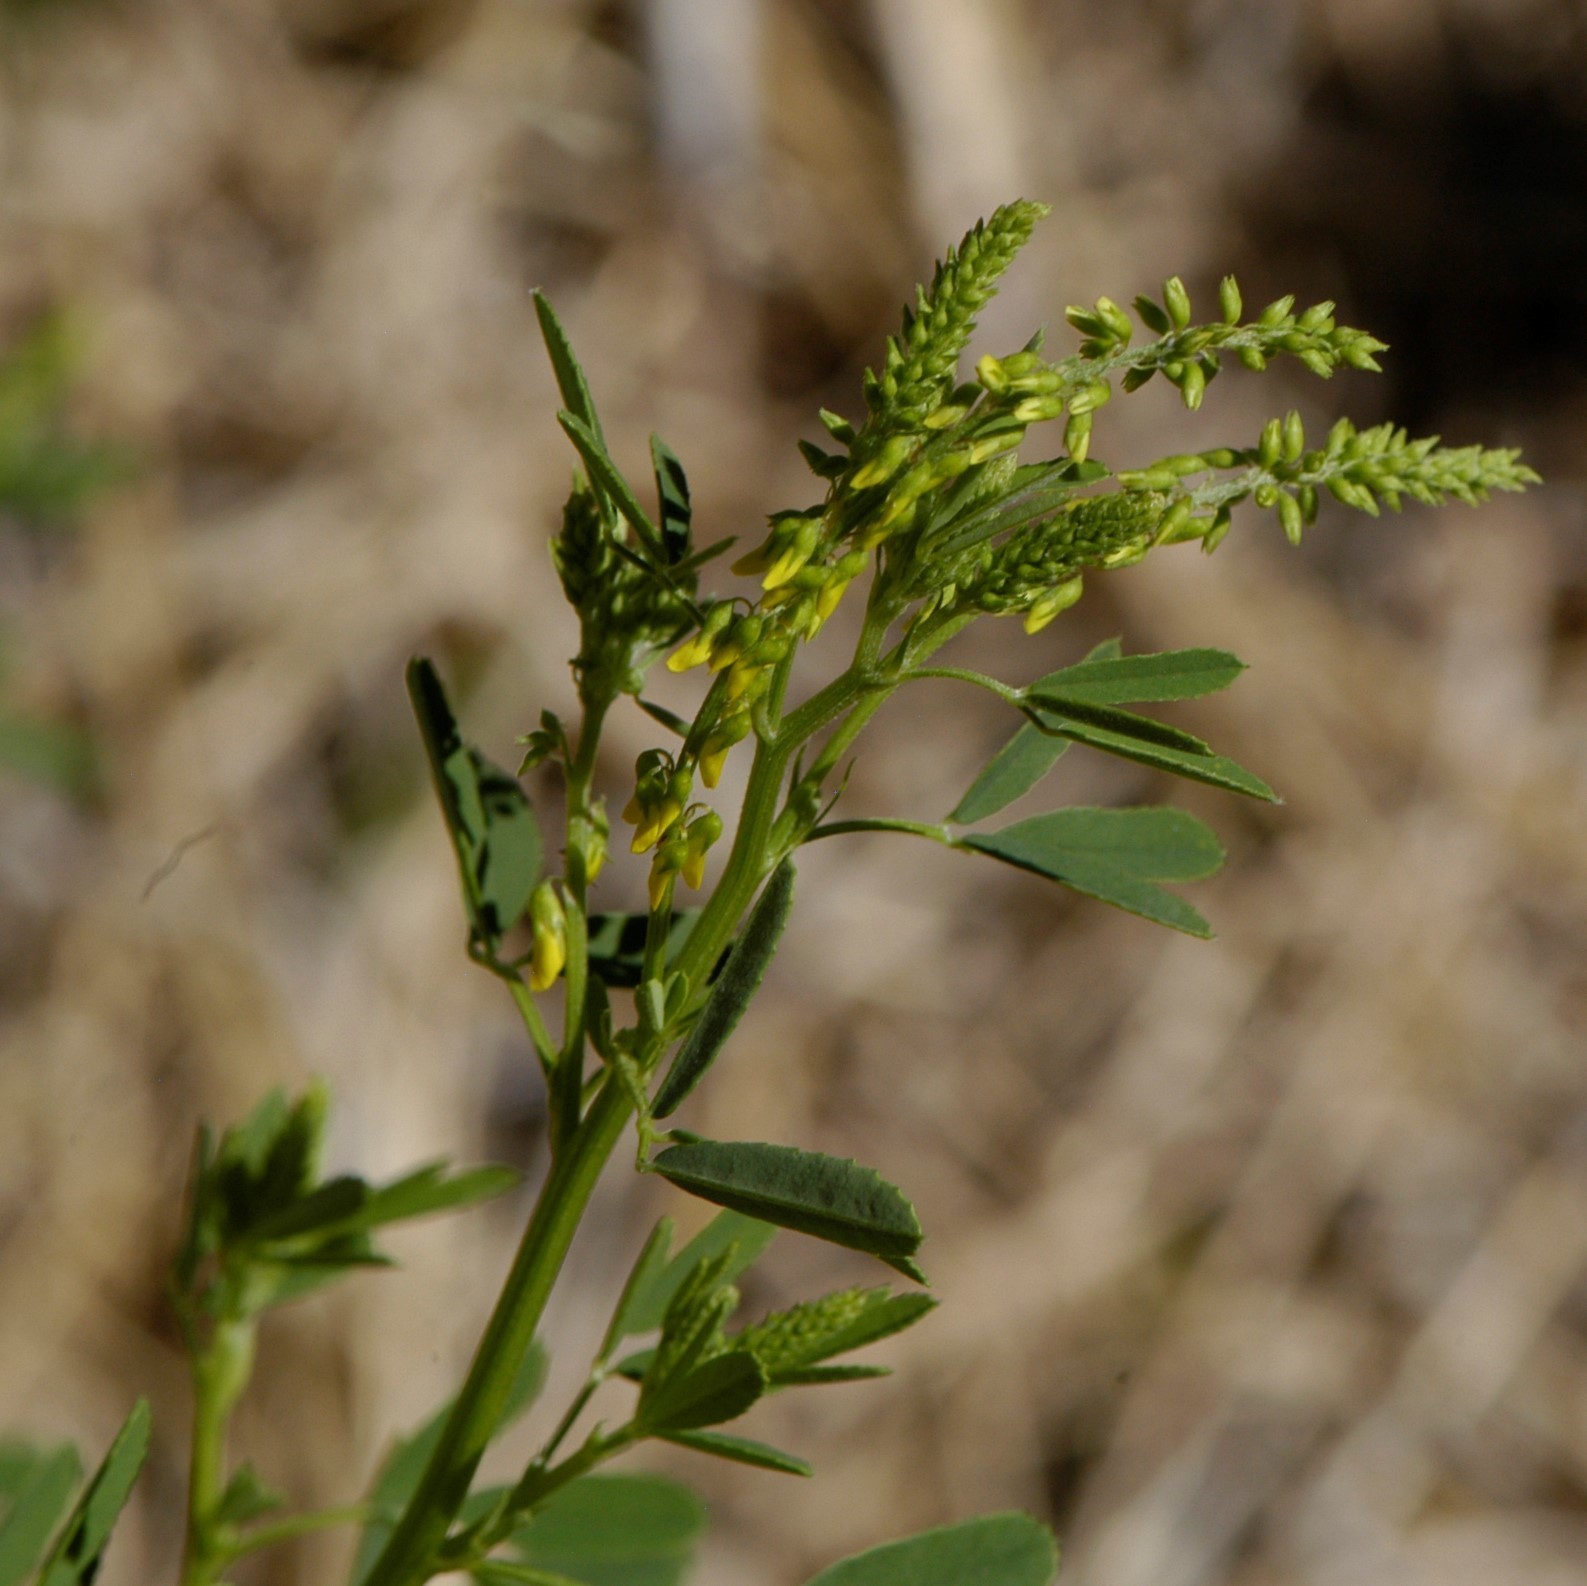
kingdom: Plantae
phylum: Tracheophyta
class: Magnoliopsida
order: Fabales
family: Fabaceae
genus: Melilotus
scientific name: Melilotus officinalis
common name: Sweetclover
